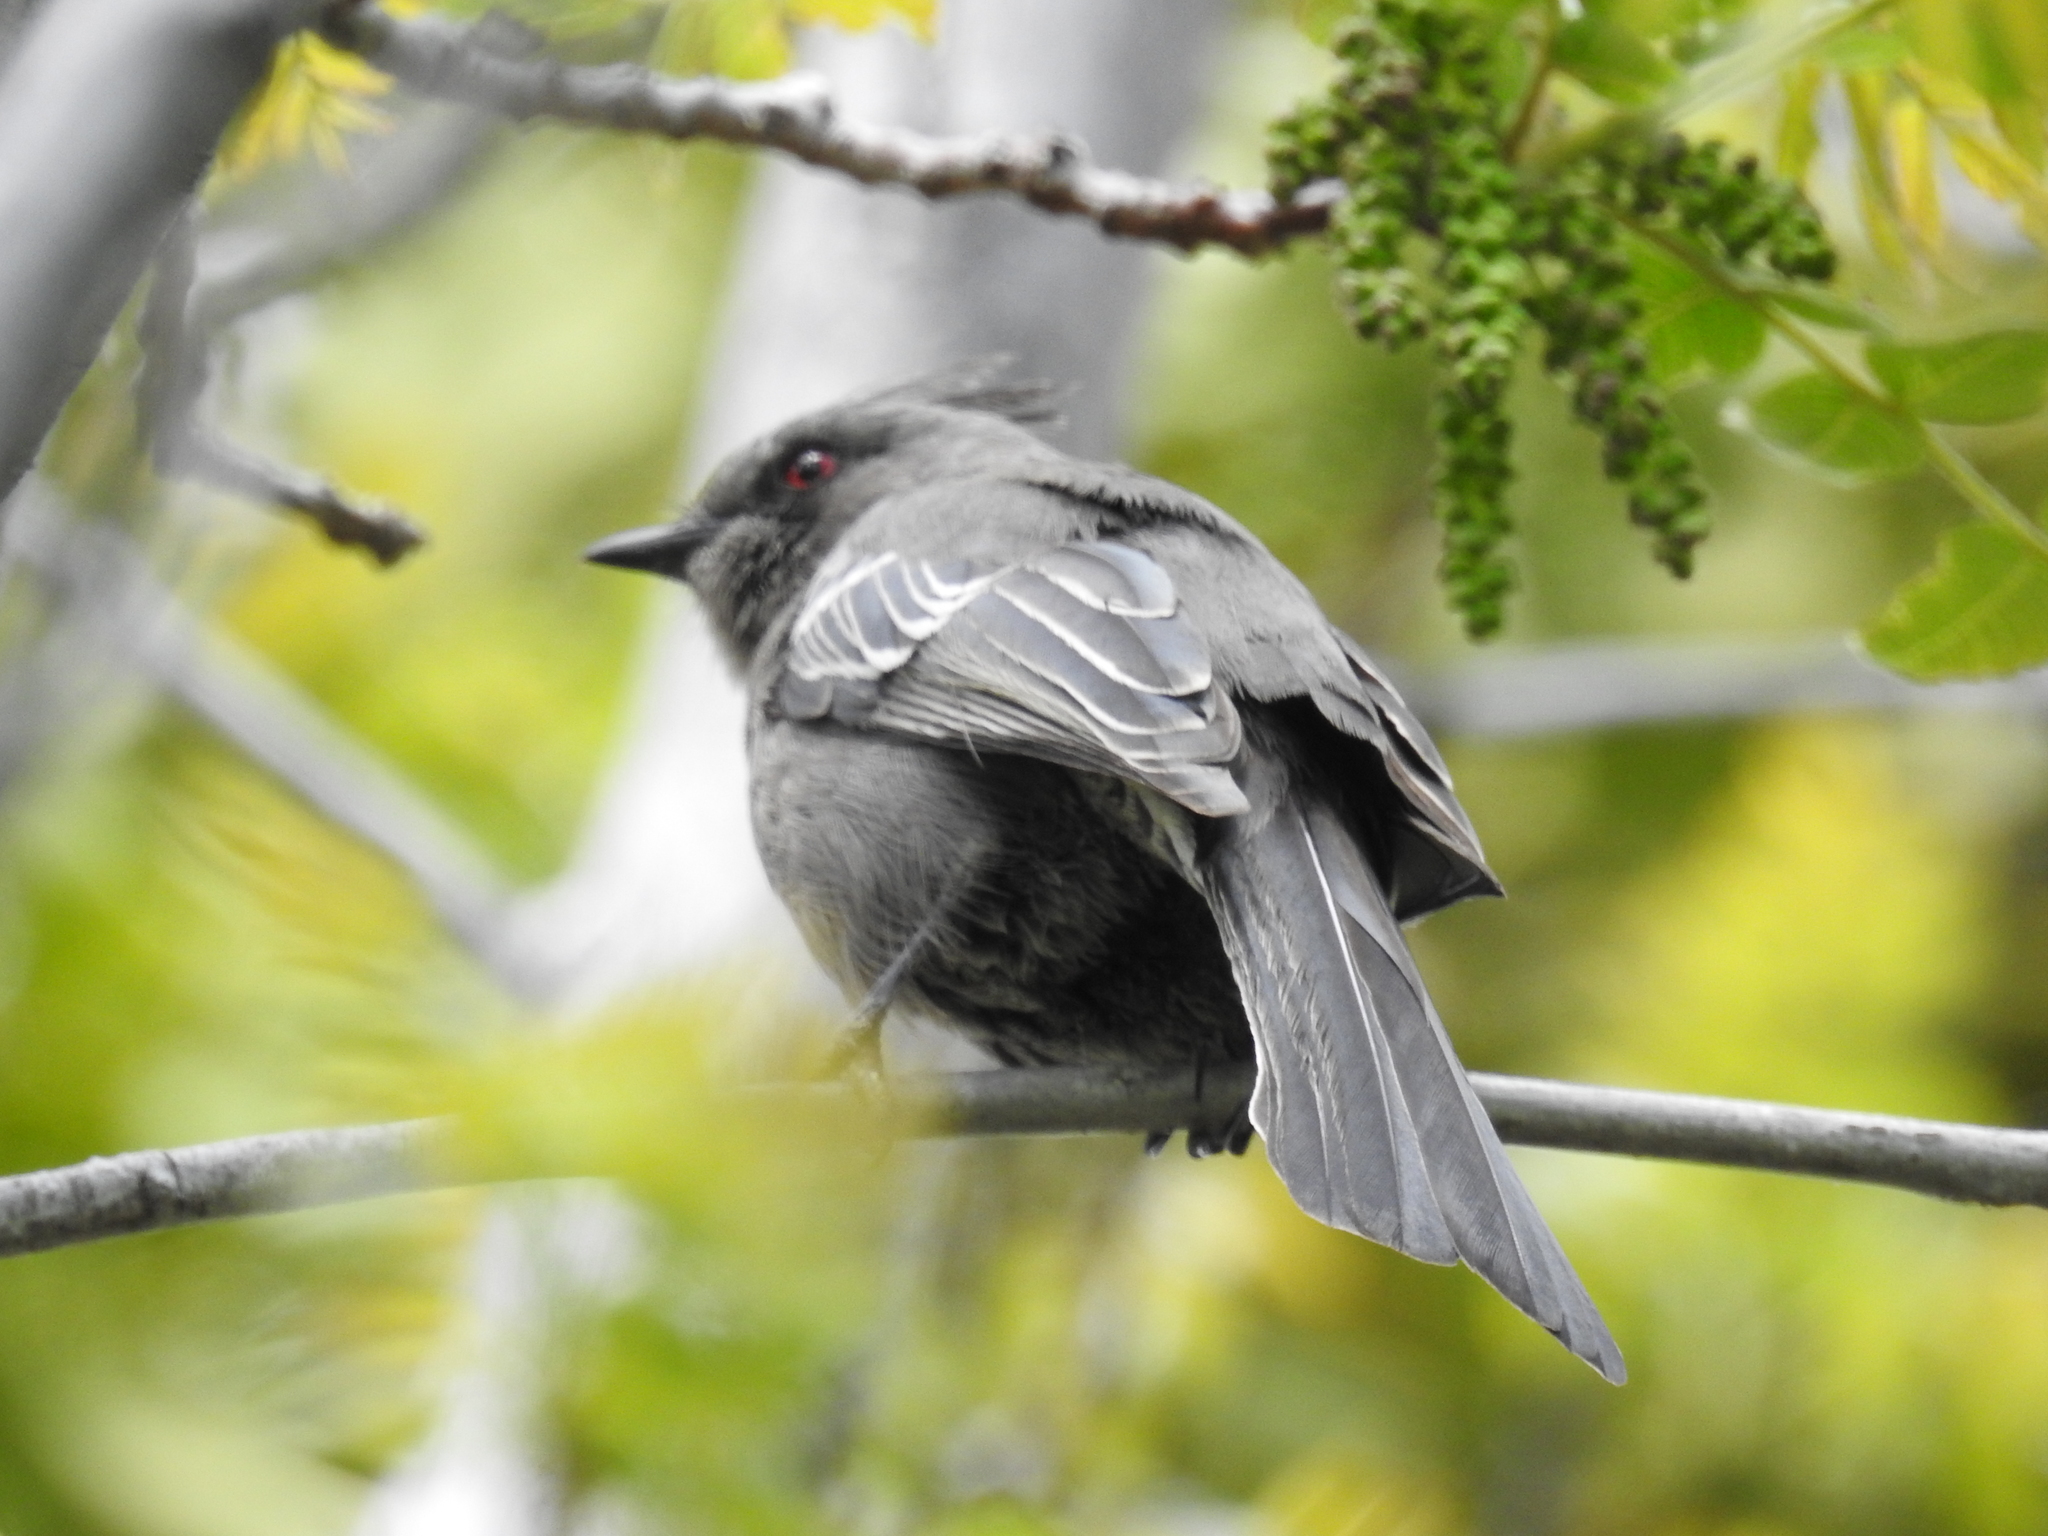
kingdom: Animalia
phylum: Chordata
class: Aves
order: Passeriformes
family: Ptilogonatidae
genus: Phainopepla
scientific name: Phainopepla nitens
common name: Phainopepla
